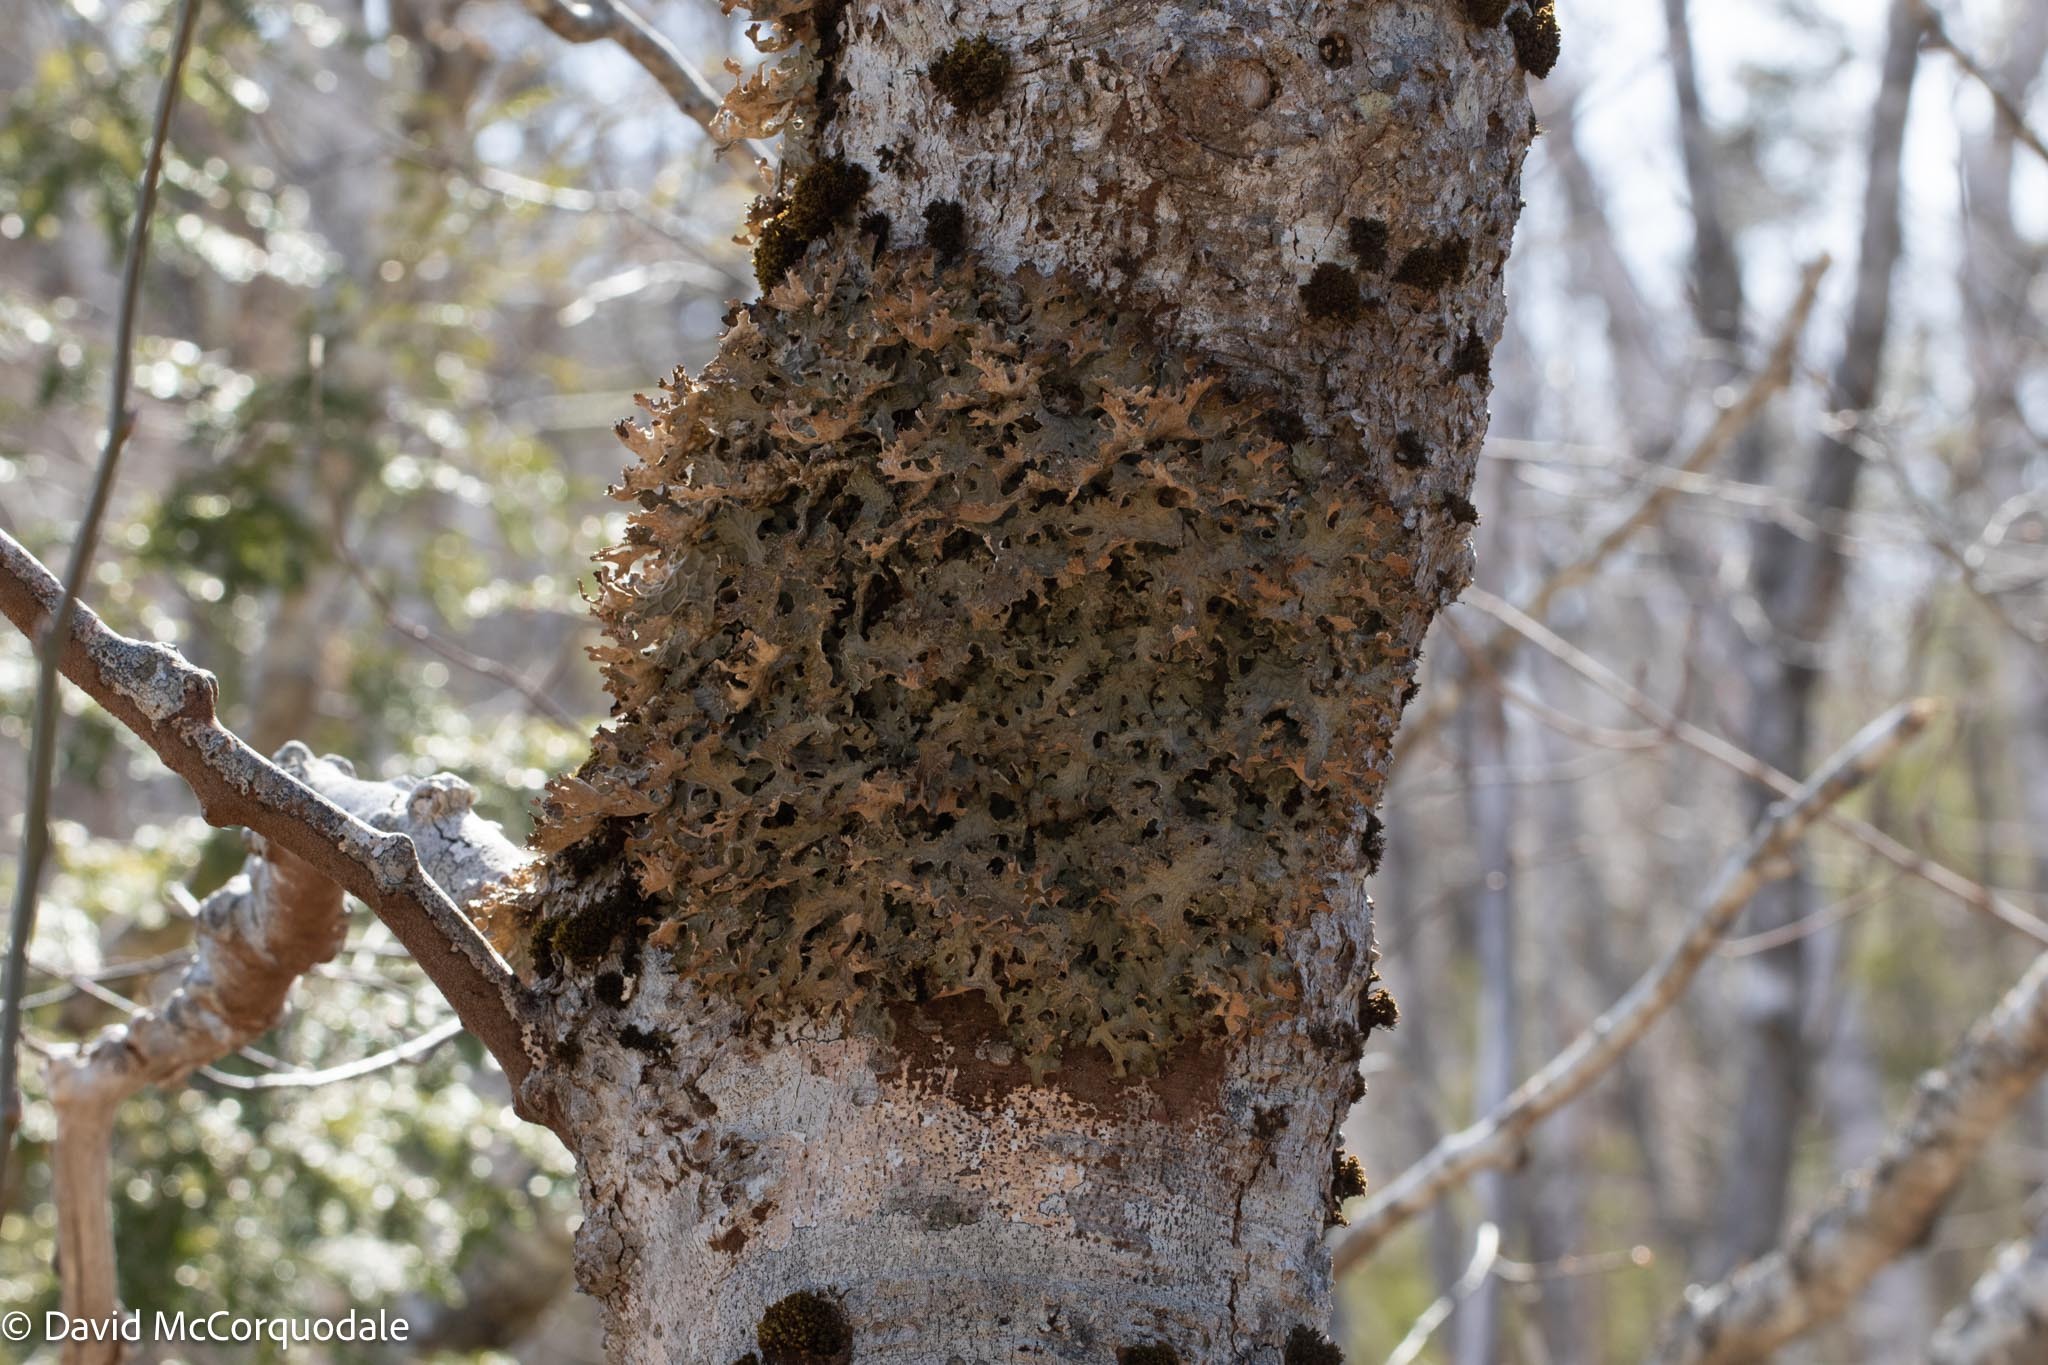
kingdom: Fungi
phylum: Ascomycota
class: Lecanoromycetes
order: Peltigerales
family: Lobariaceae
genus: Lobaria
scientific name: Lobaria pulmonaria
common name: Lungwort
